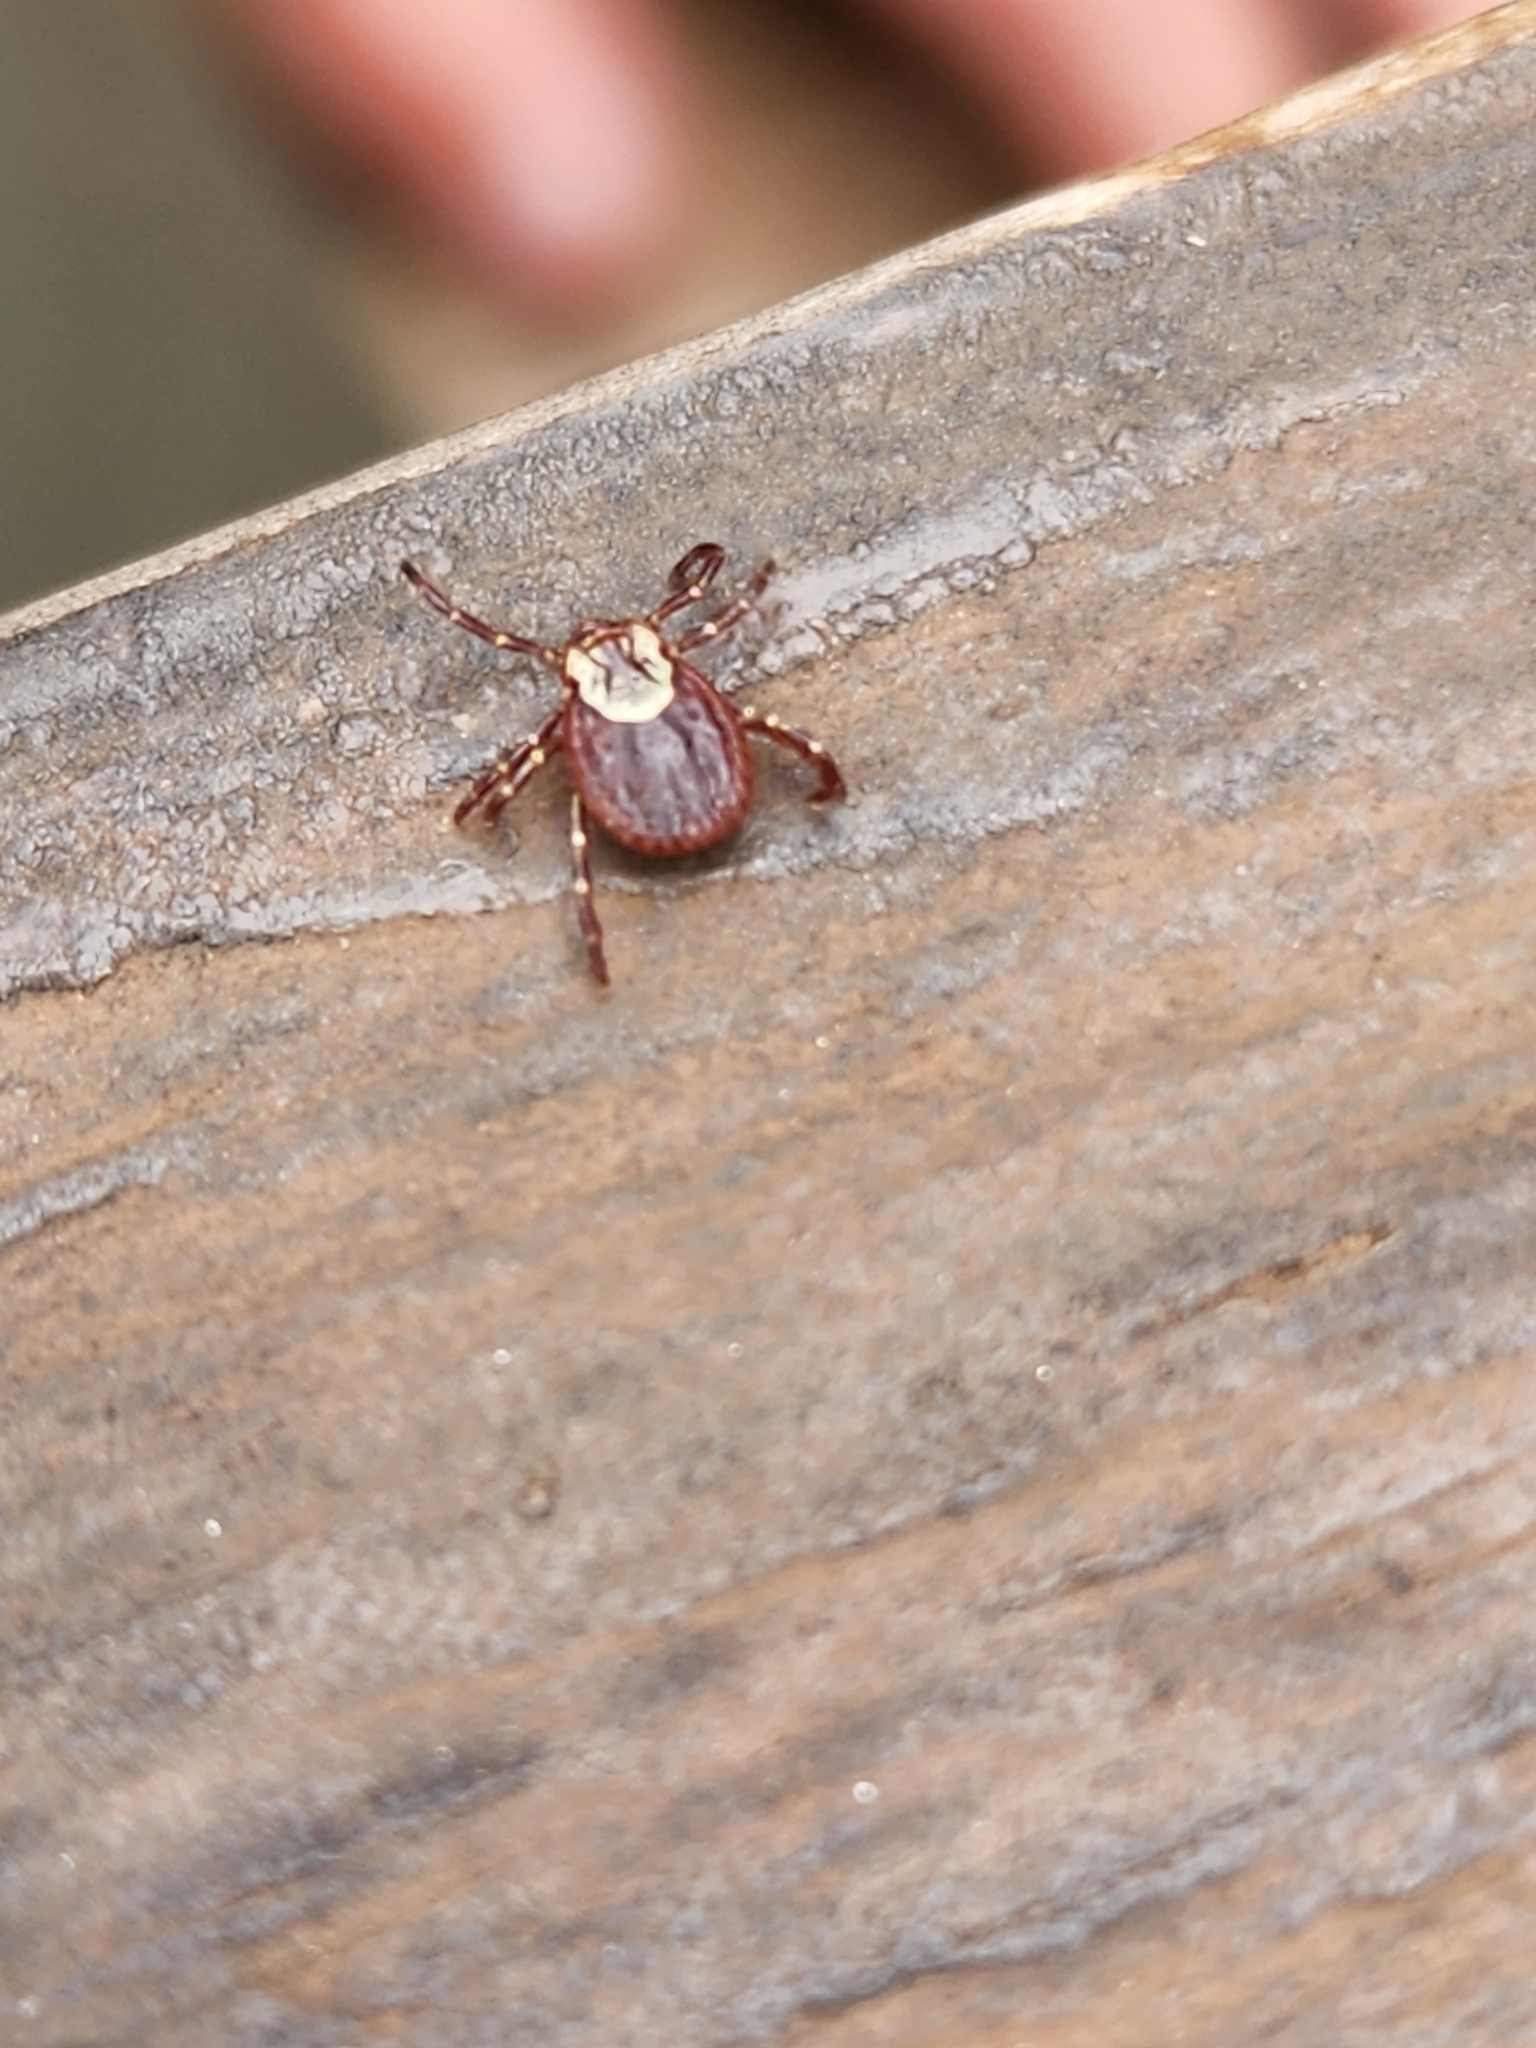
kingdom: Animalia
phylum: Arthropoda
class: Arachnida
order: Ixodida
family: Ixodidae
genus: Dermacentor
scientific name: Dermacentor variabilis
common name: American dog tick
